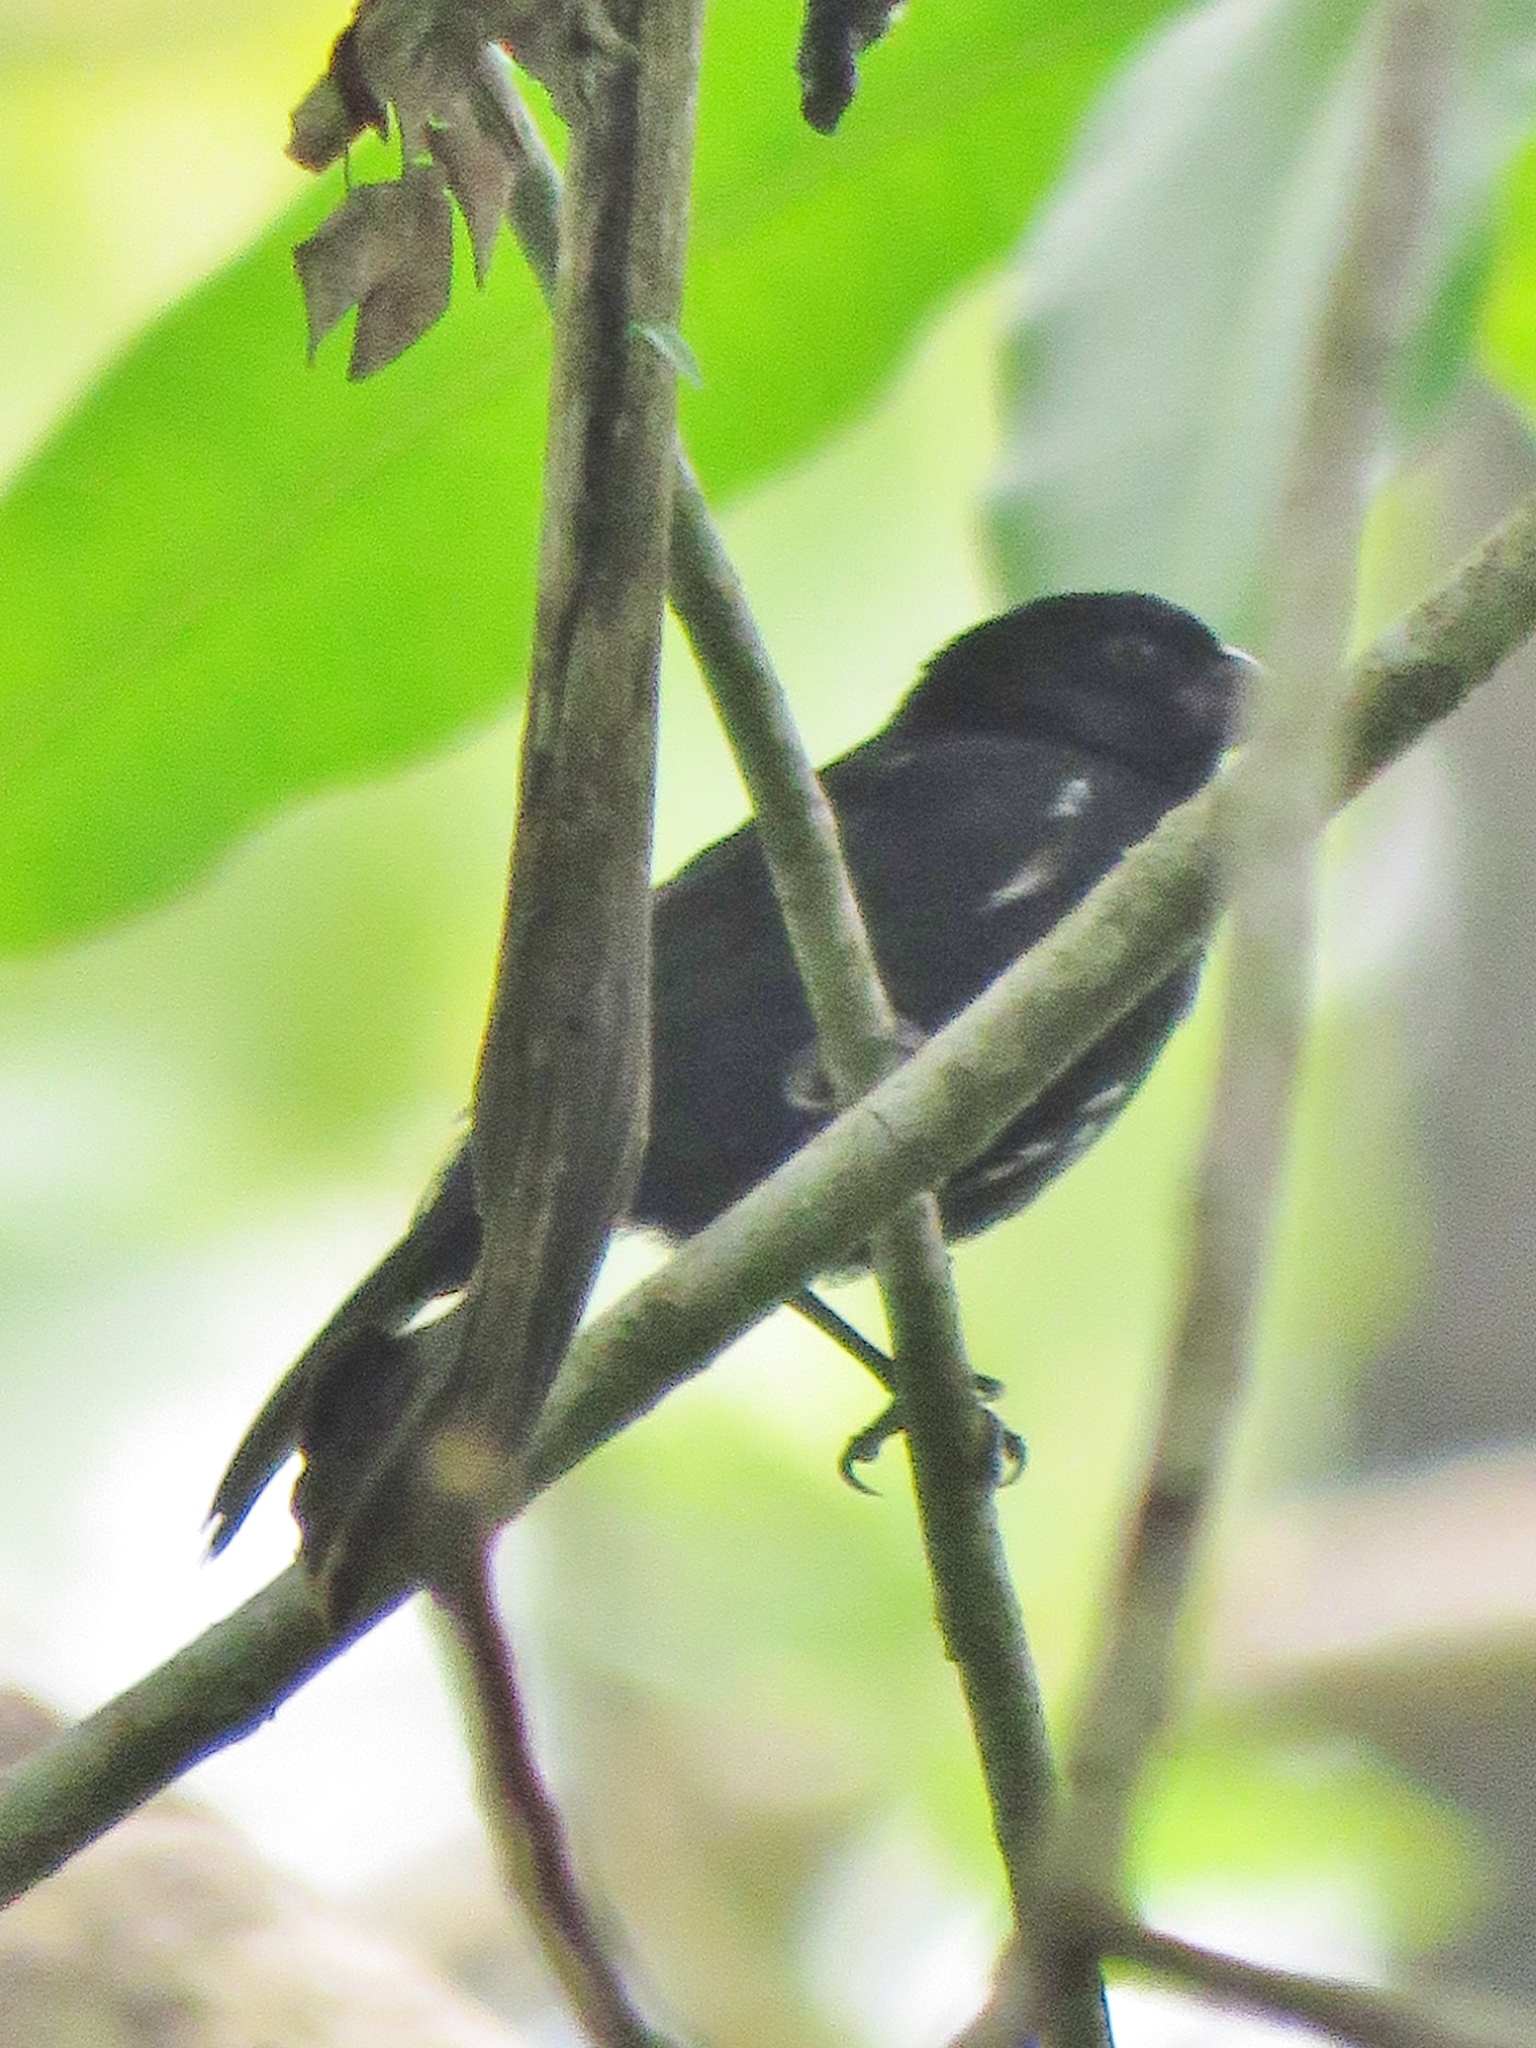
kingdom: Animalia
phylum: Chordata
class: Aves
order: Passeriformes
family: Thraupidae
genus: Sporophila
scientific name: Sporophila corvina
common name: Variable seedeater
